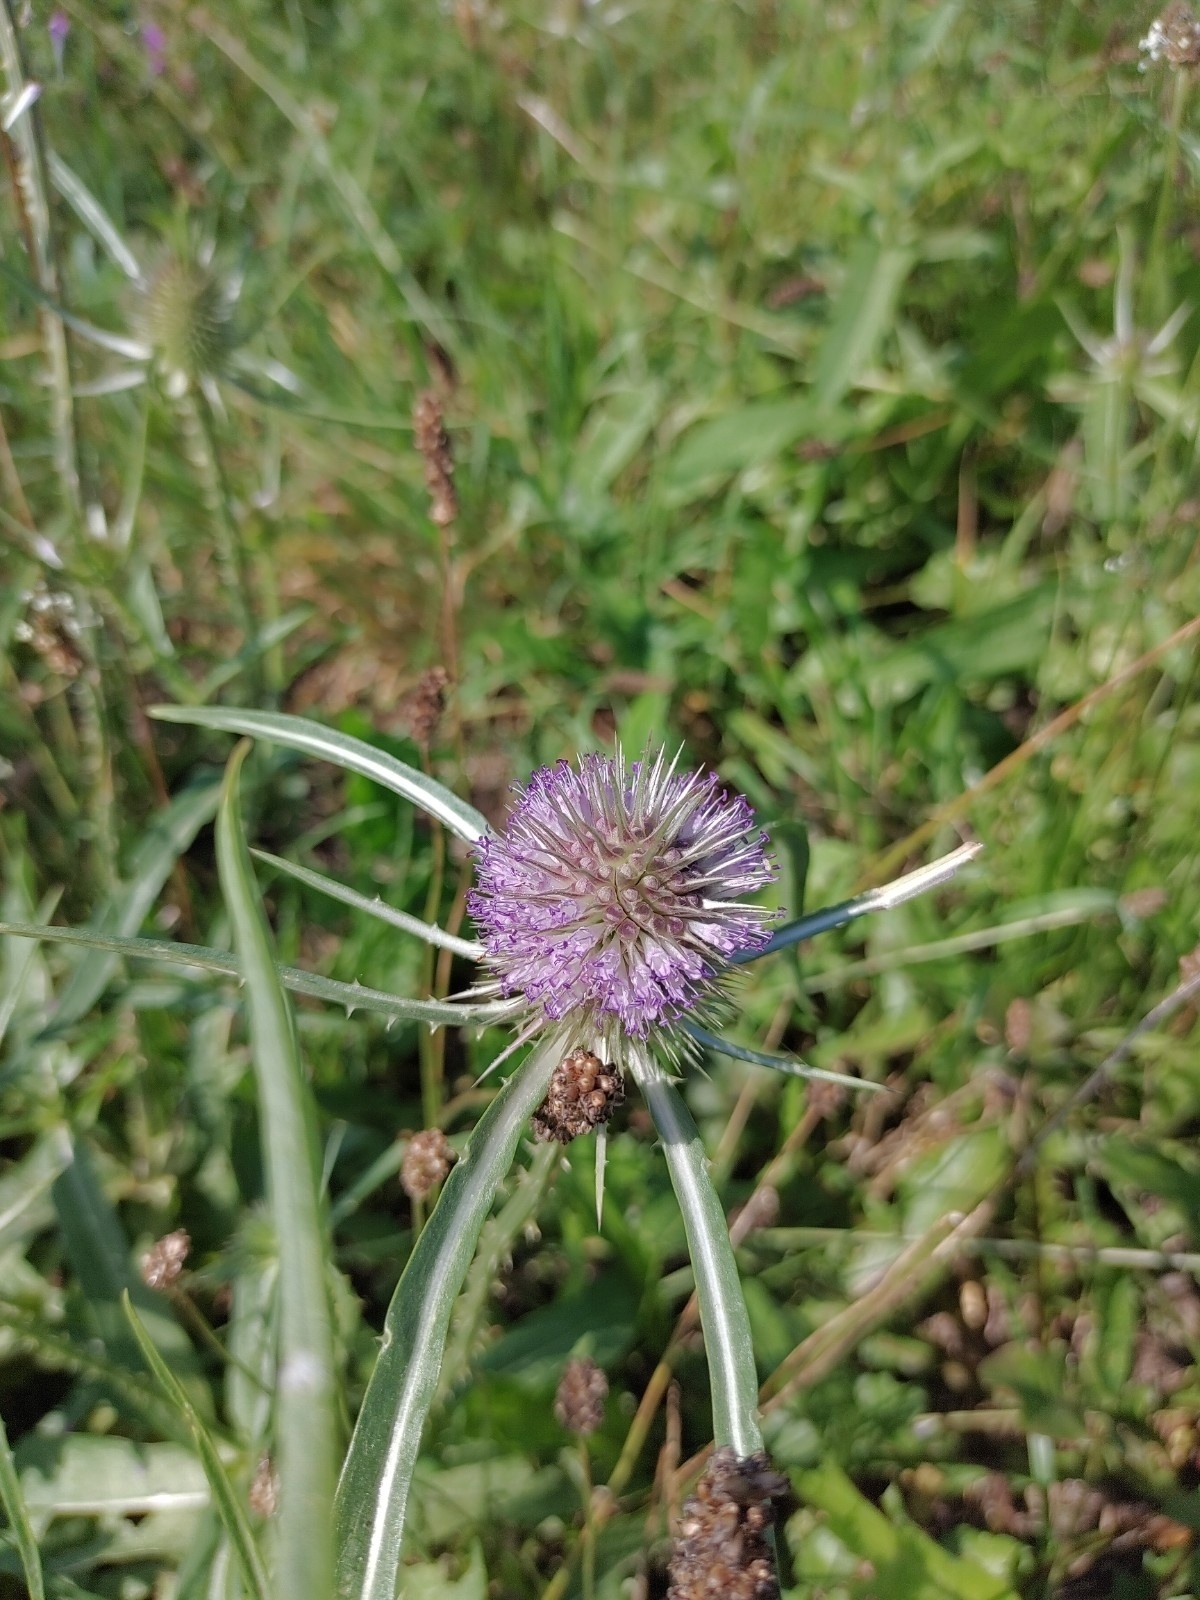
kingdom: Plantae
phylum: Tracheophyta
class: Magnoliopsida
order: Dipsacales
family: Caprifoliaceae
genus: Dipsacus
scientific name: Dipsacus fullonum
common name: Teasel
